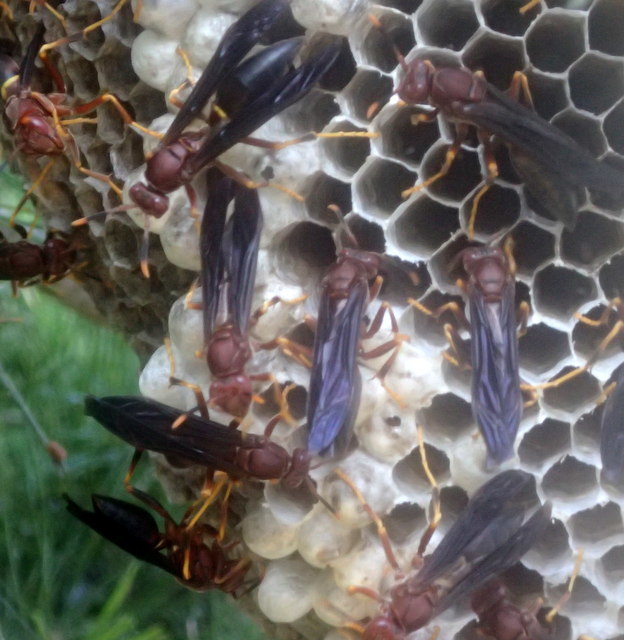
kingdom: Animalia
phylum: Arthropoda
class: Insecta
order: Hymenoptera
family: Eumenidae
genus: Polistes
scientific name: Polistes annularis
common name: Ringed paper wasp
